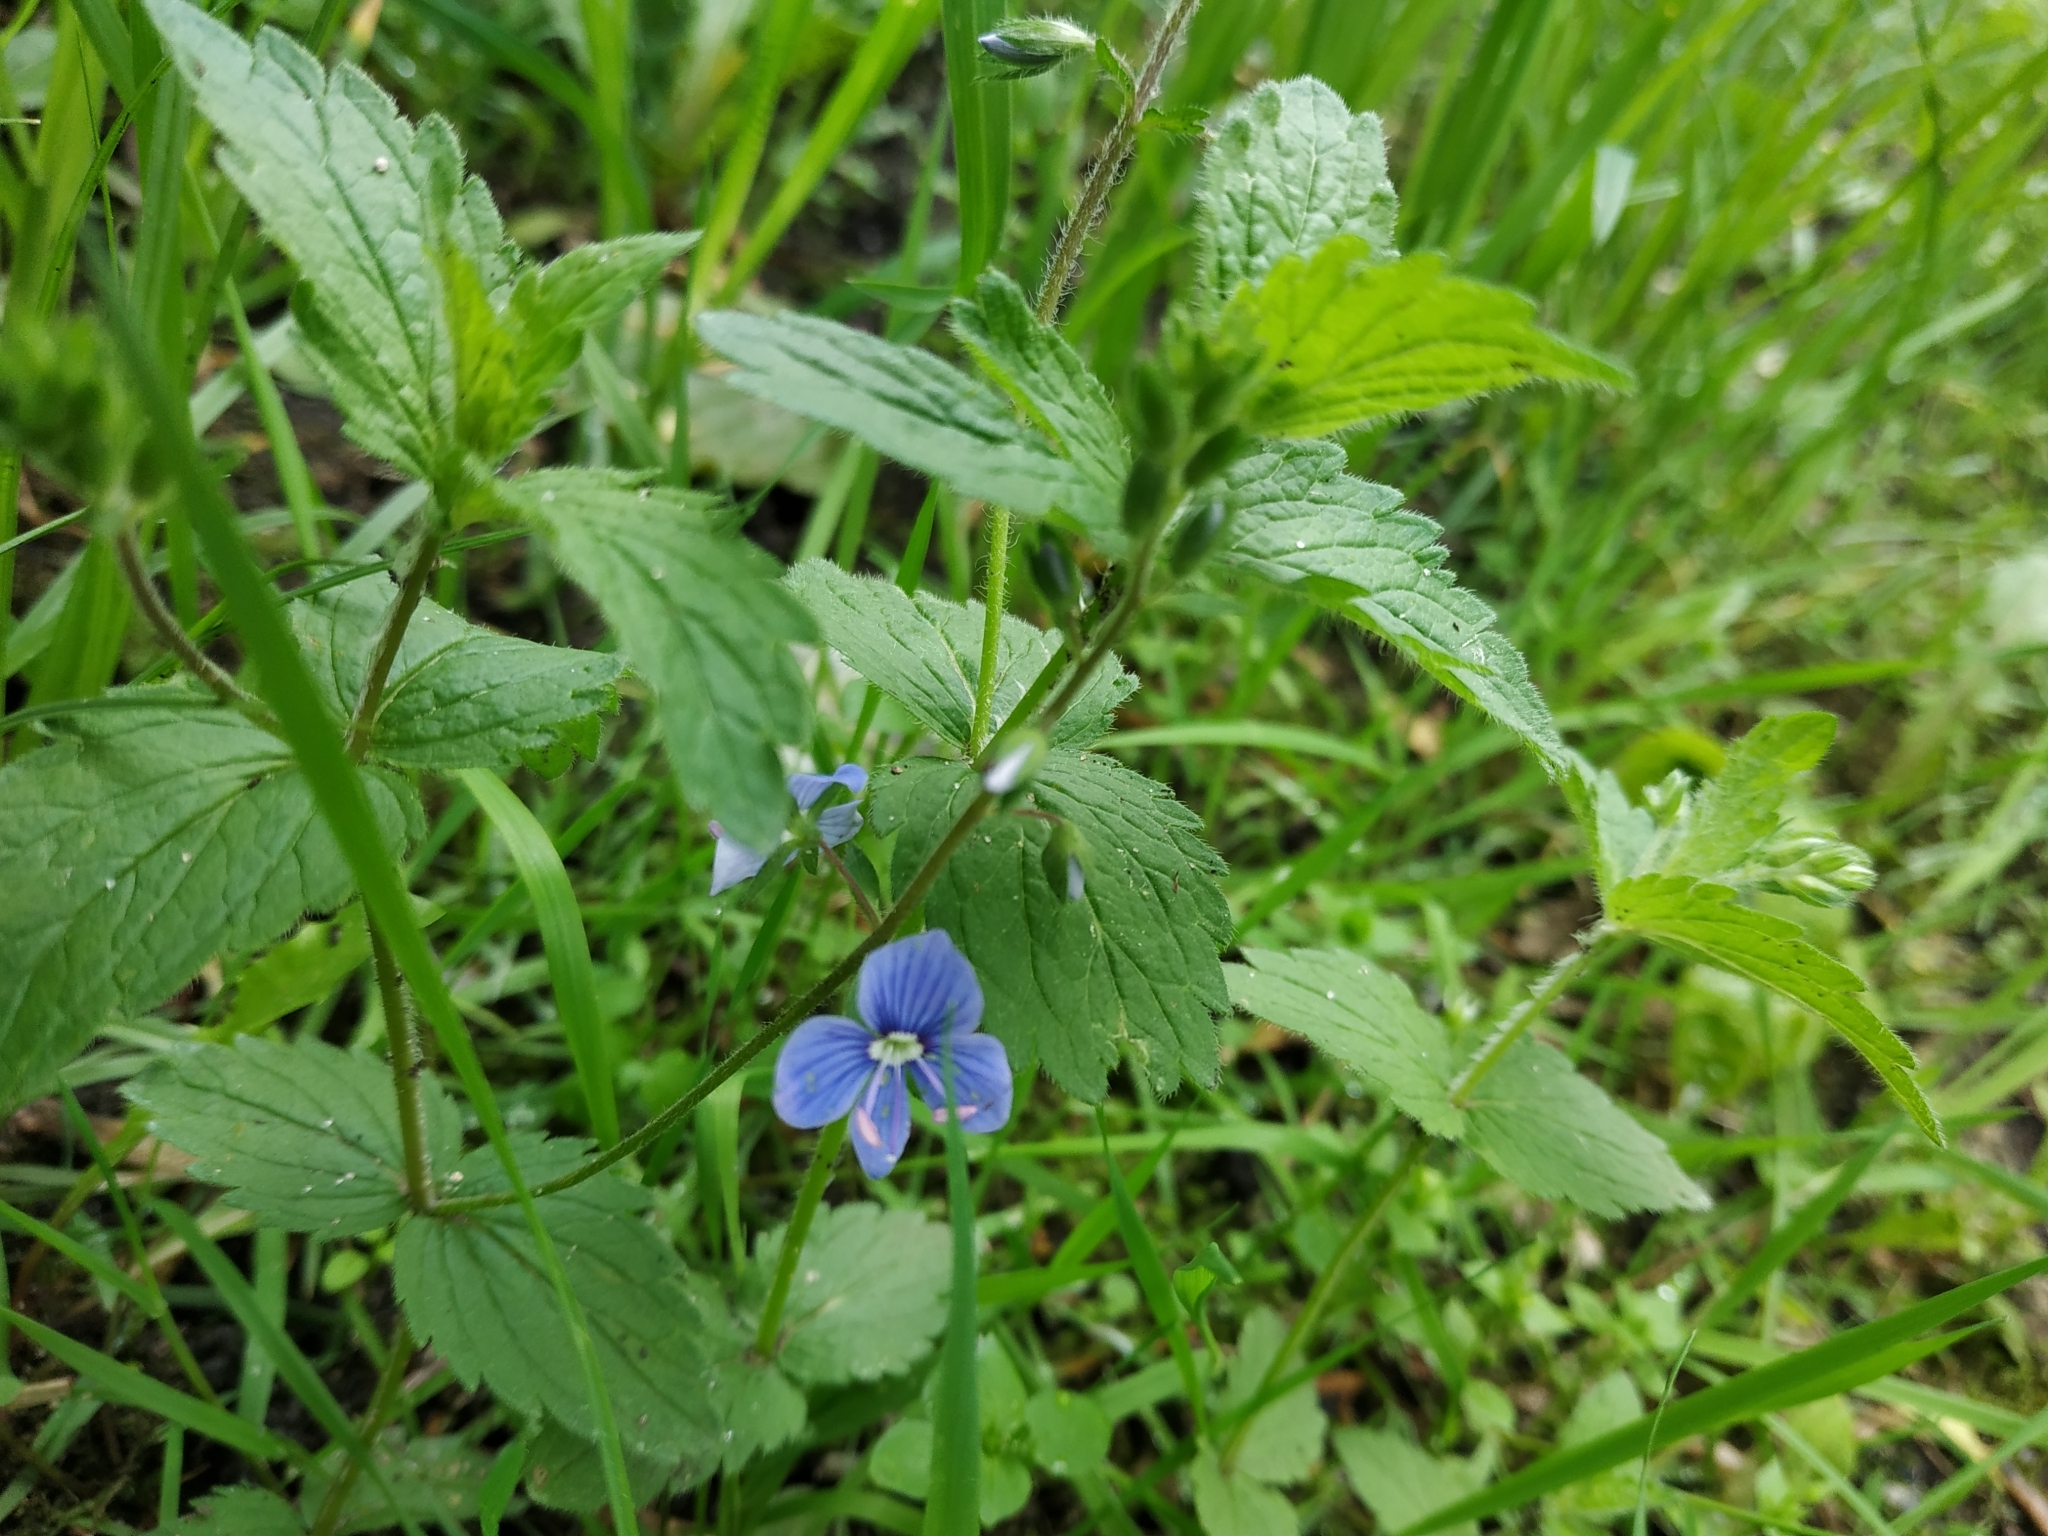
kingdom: Plantae
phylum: Tracheophyta
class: Magnoliopsida
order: Lamiales
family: Plantaginaceae
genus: Veronica
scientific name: Veronica chamaedrys
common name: Germander speedwell
